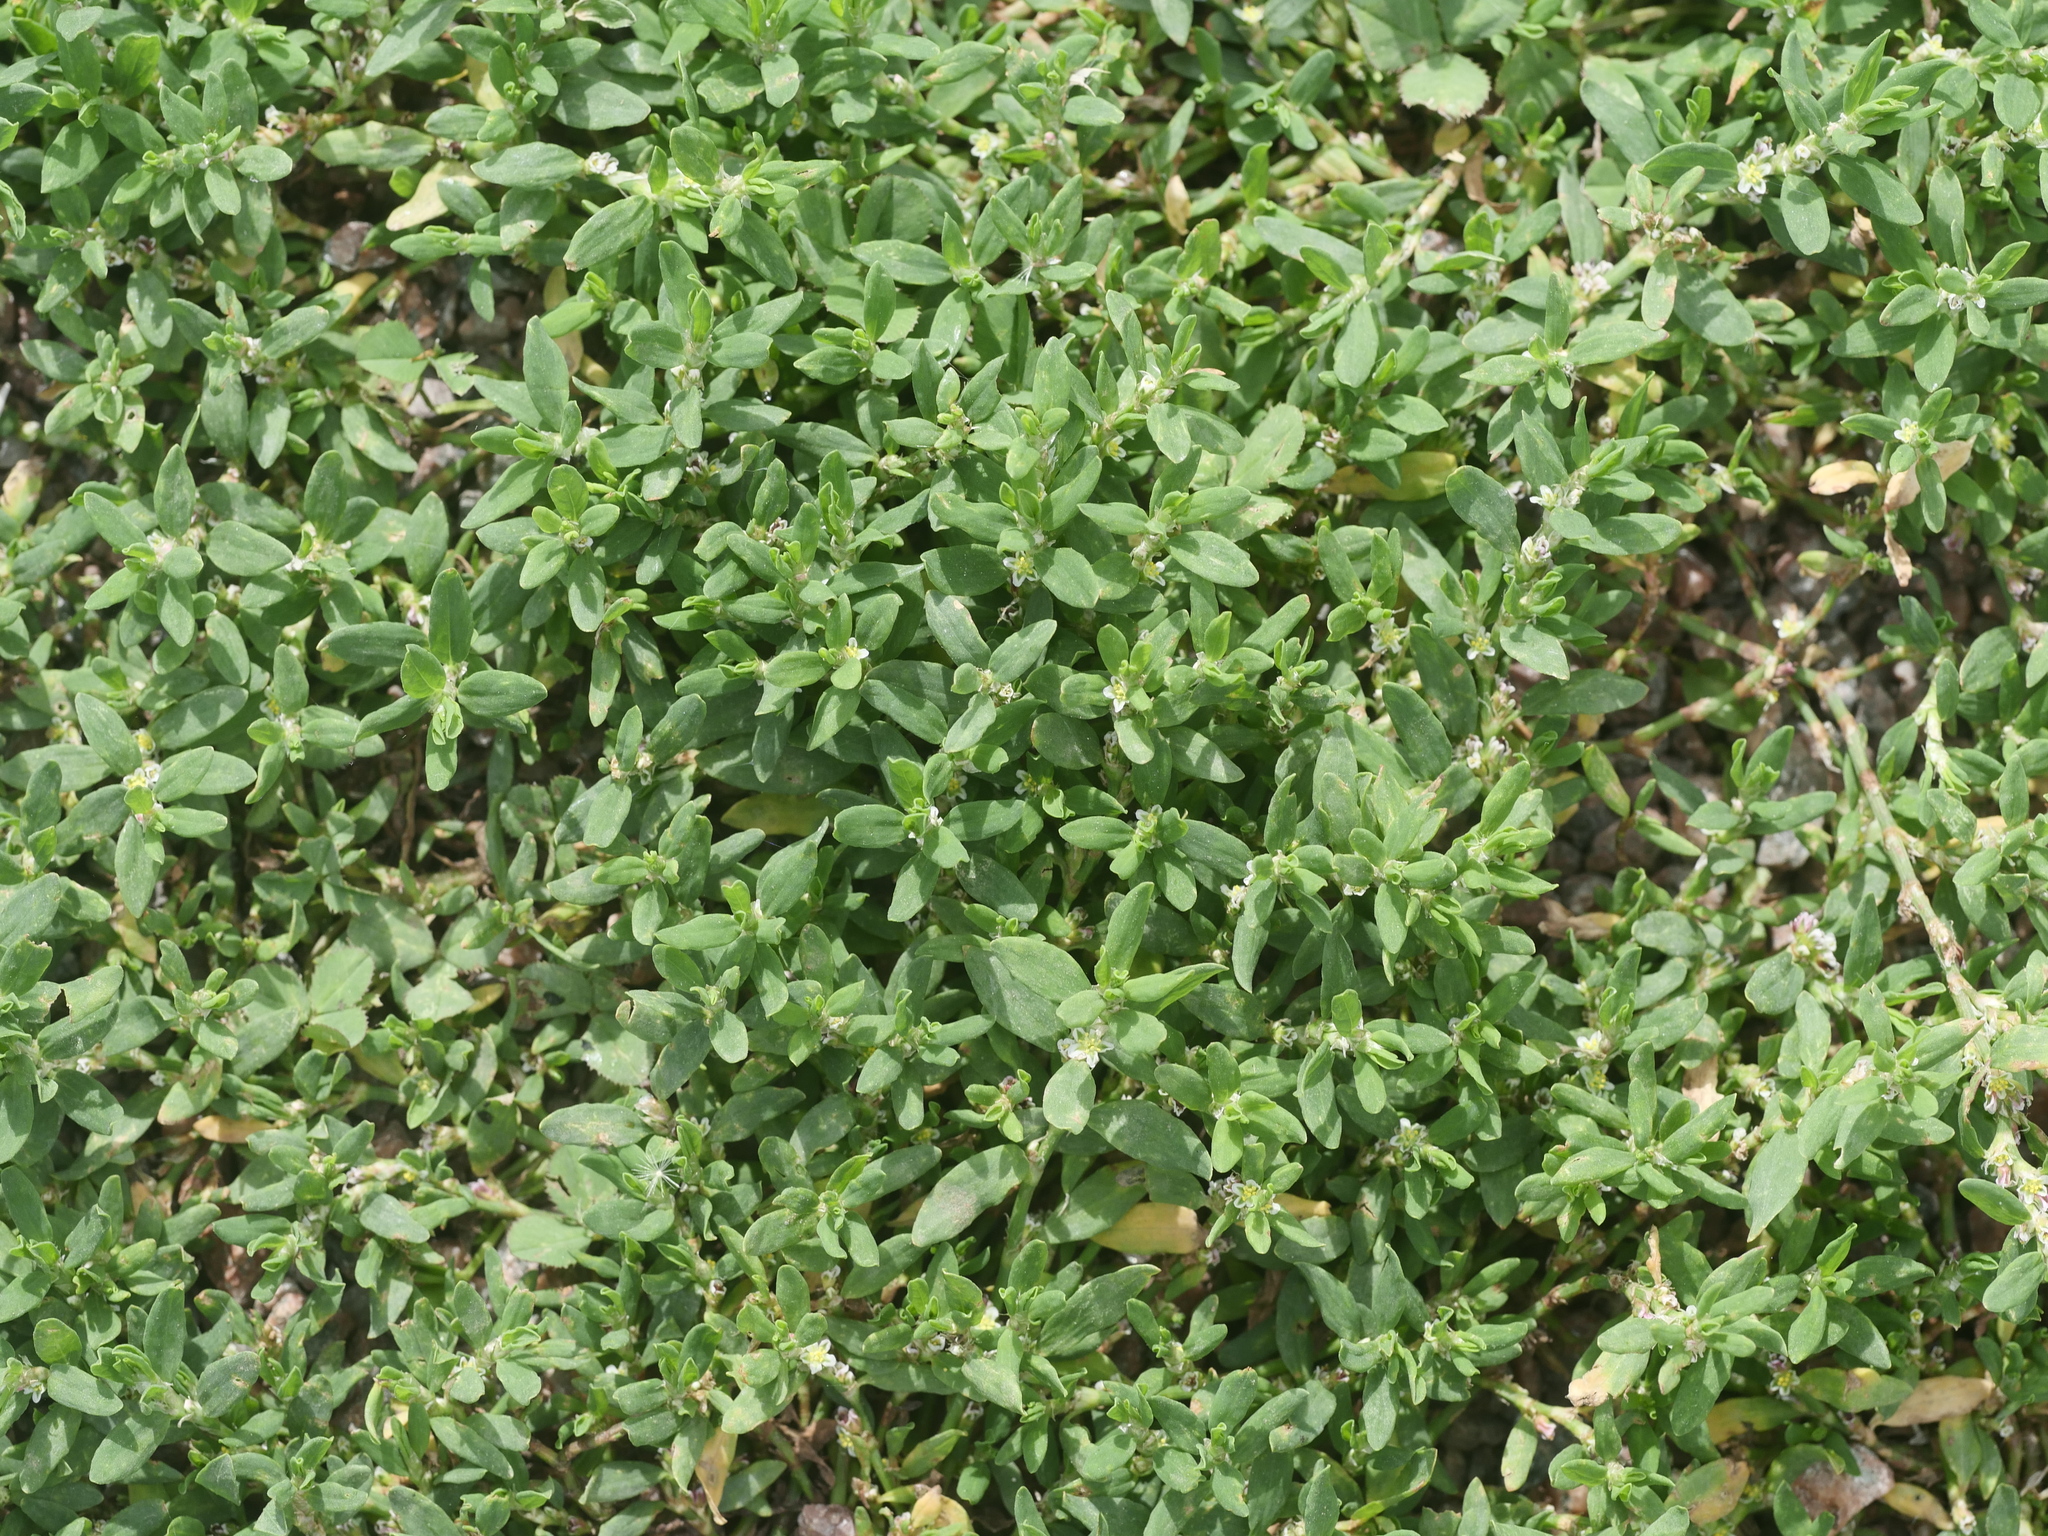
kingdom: Plantae
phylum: Tracheophyta
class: Magnoliopsida
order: Caryophyllales
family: Polygonaceae
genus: Polygonum
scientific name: Polygonum aviculare
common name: Prostrate knotweed
